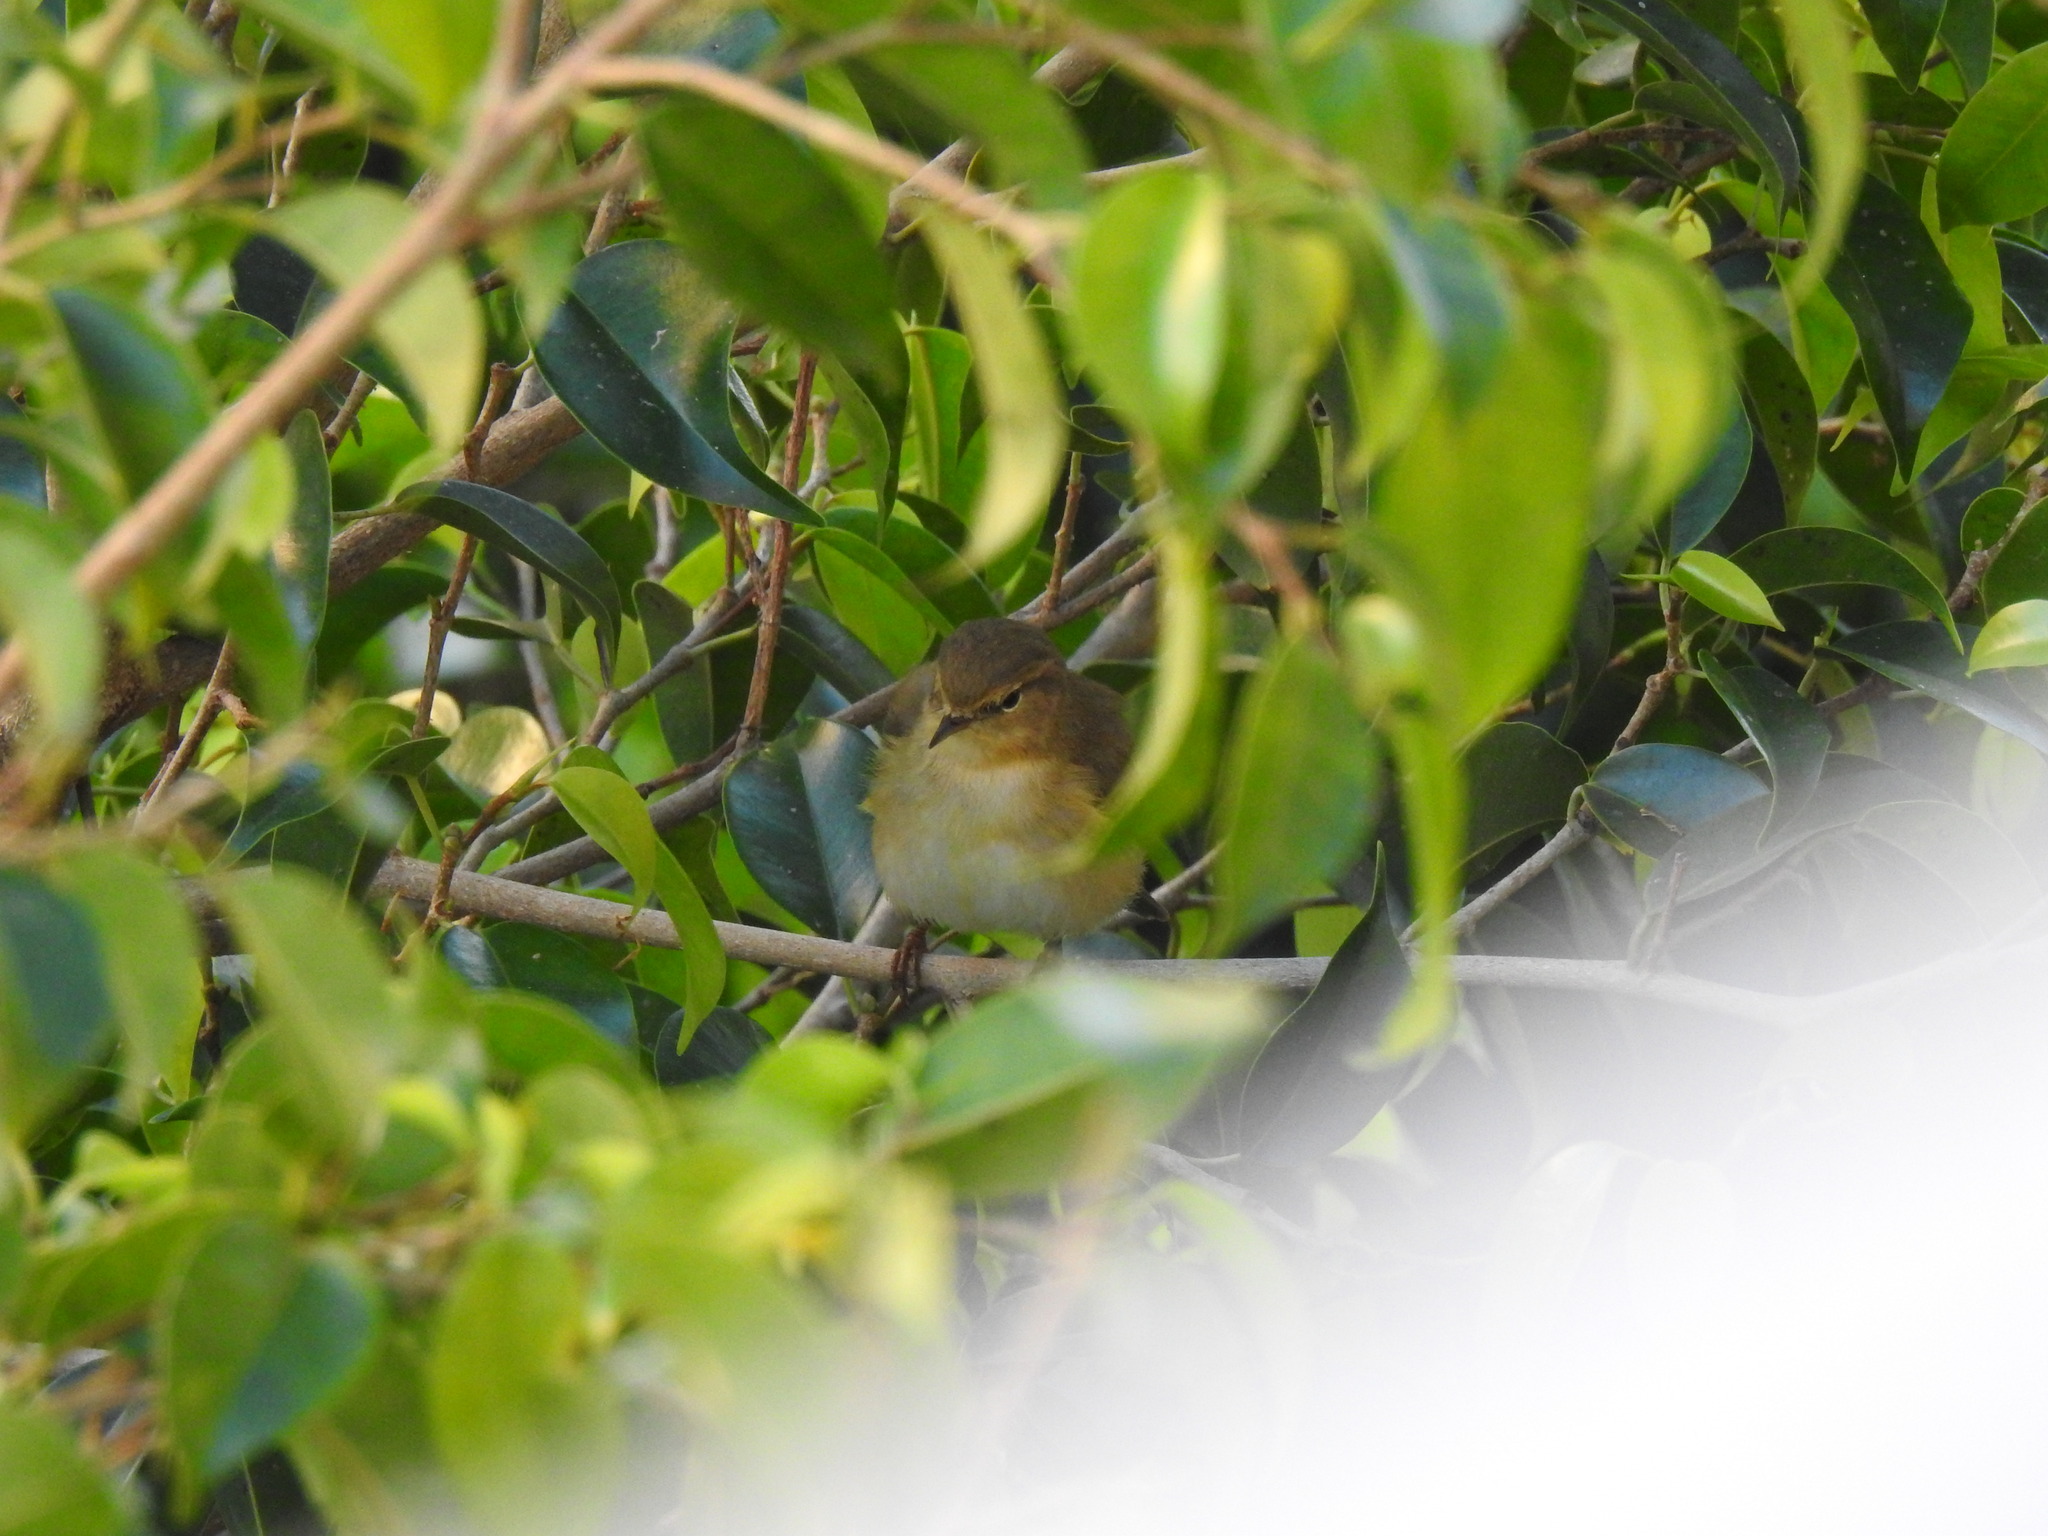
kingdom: Animalia
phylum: Chordata
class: Aves
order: Passeriformes
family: Phylloscopidae
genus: Phylloscopus
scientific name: Phylloscopus collybita
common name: Common chiffchaff
